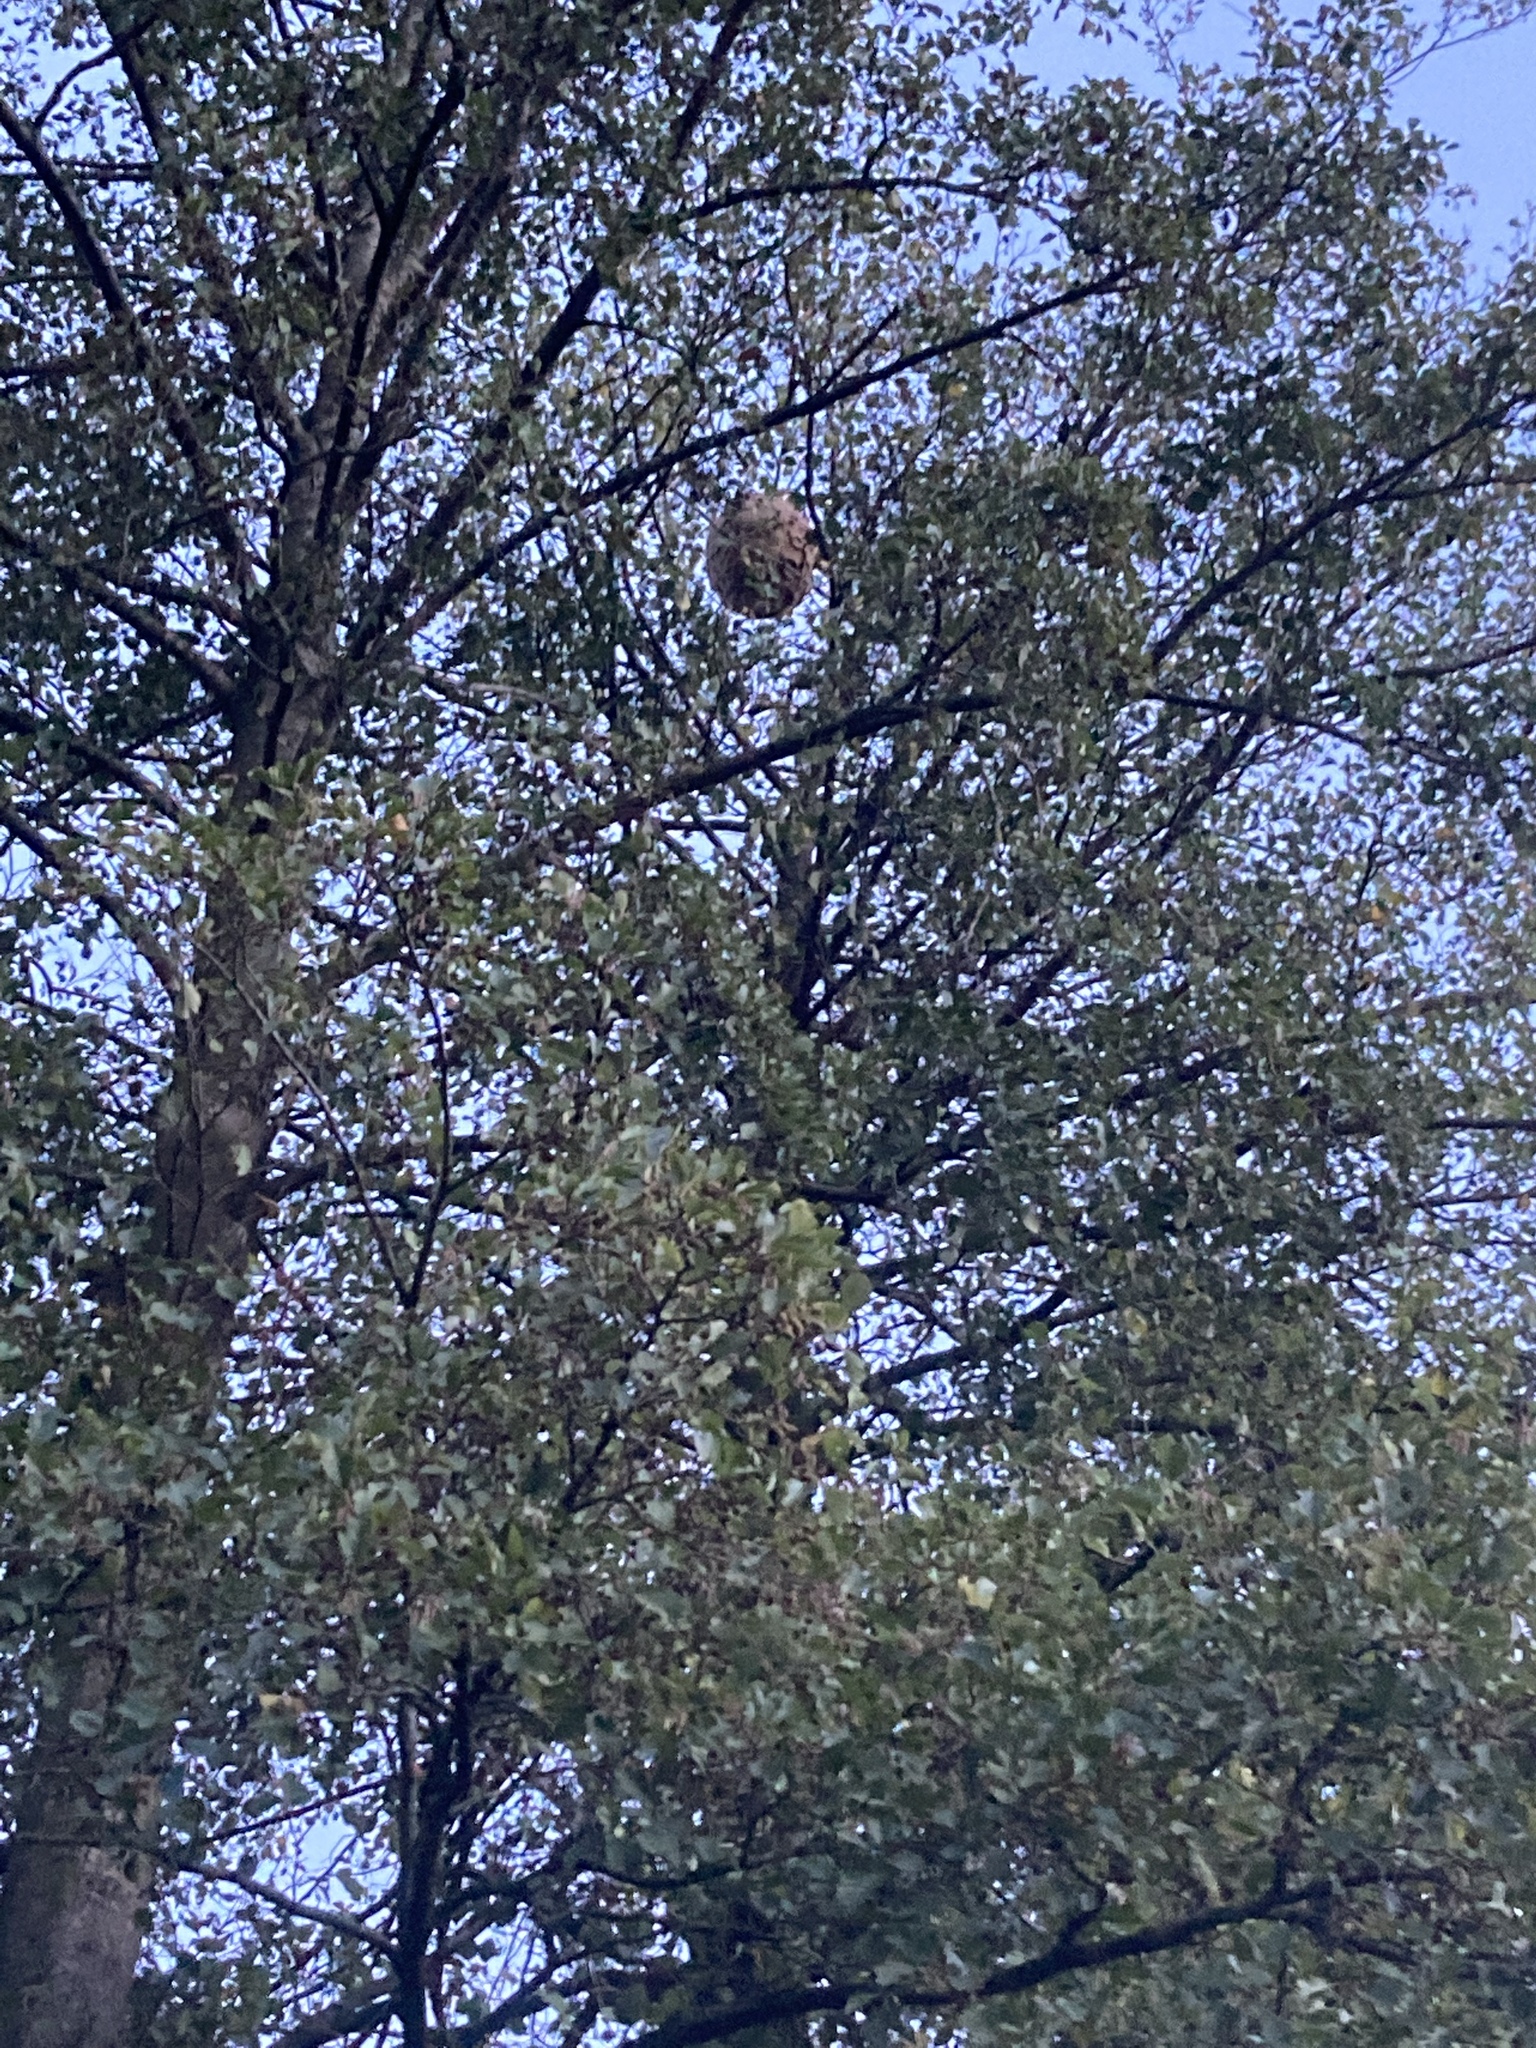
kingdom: Animalia
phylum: Arthropoda
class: Insecta
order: Hymenoptera
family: Vespidae
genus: Vespa
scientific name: Vespa velutina
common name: Asian hornet
